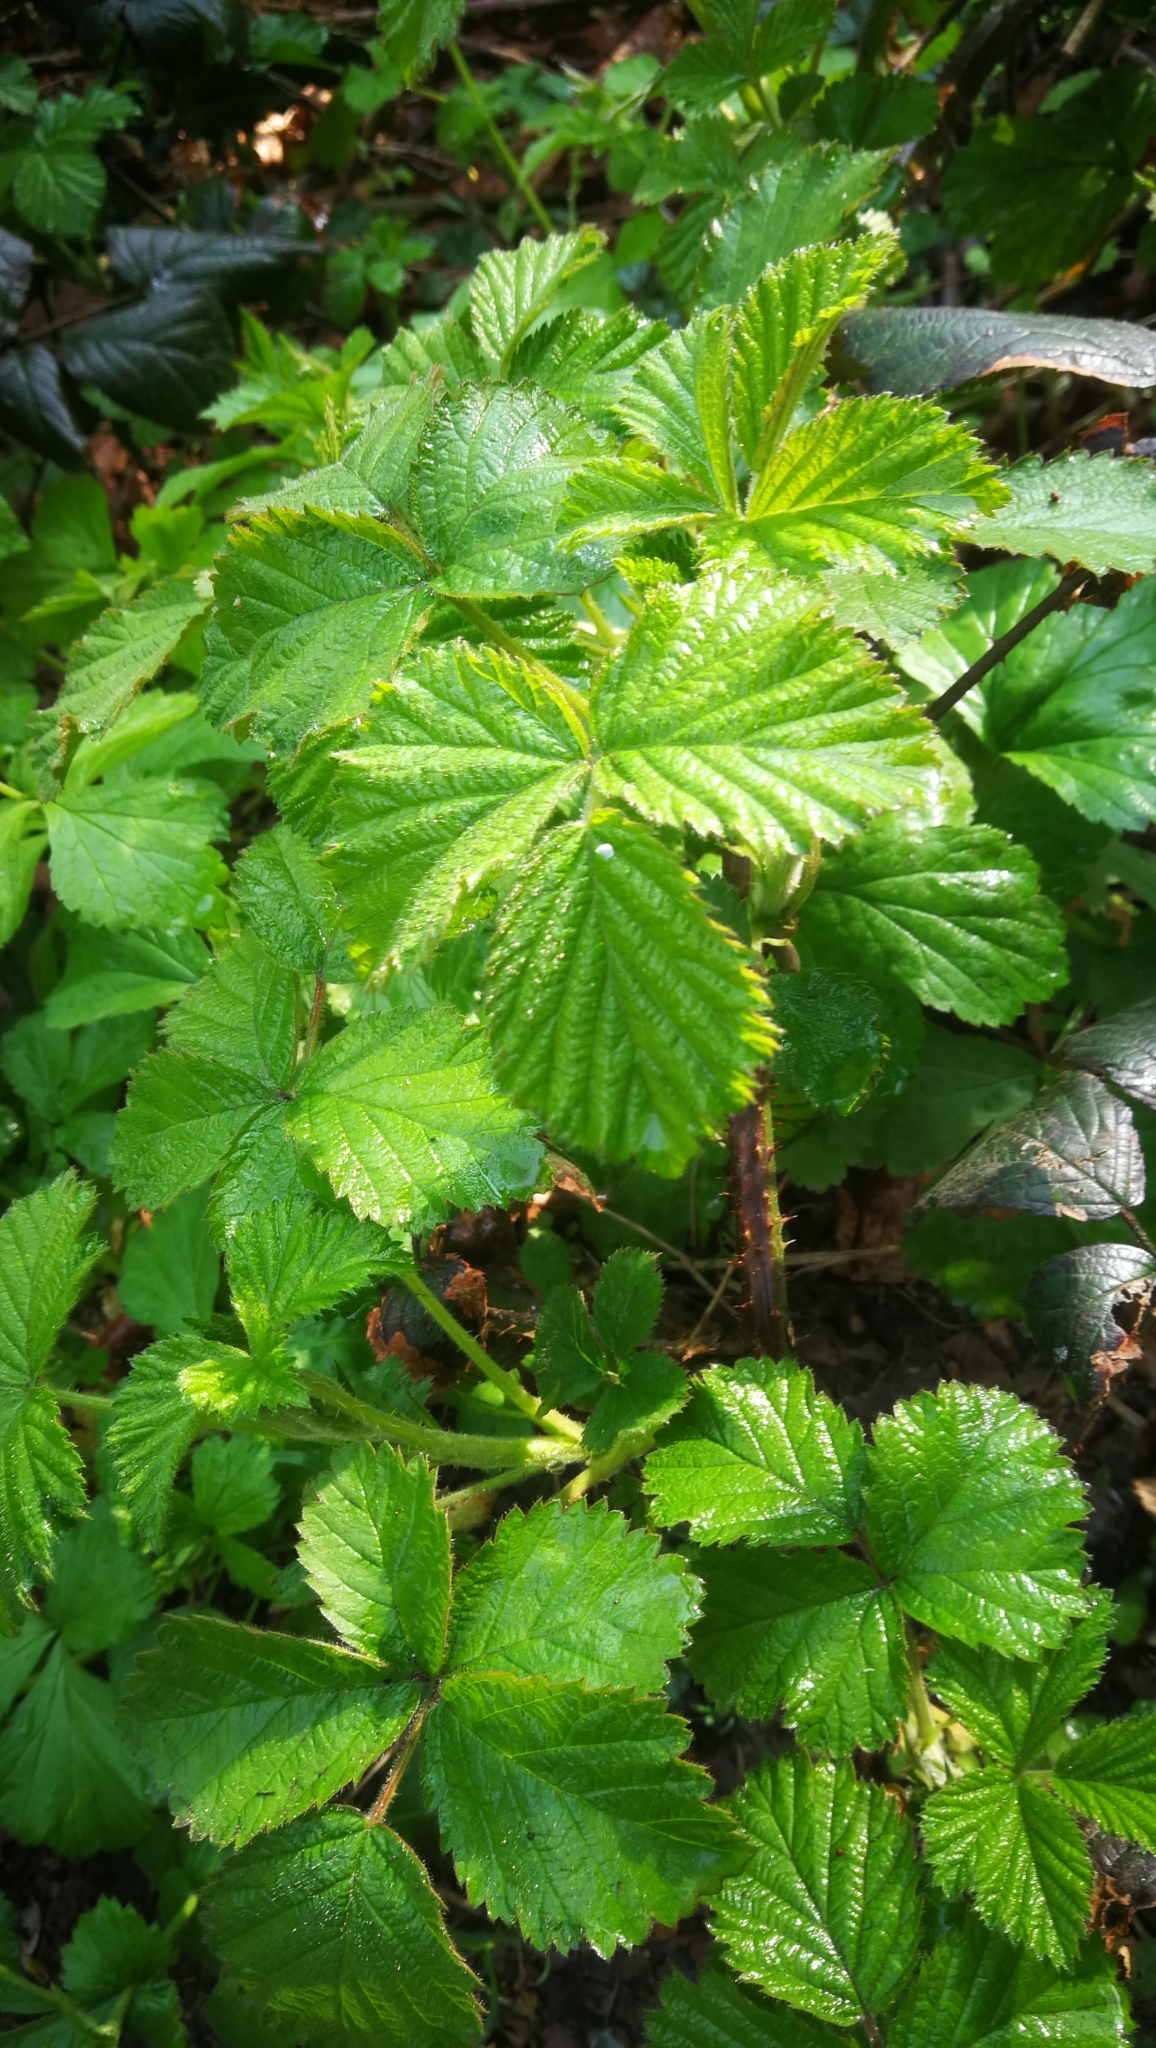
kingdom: Plantae
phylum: Tracheophyta
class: Magnoliopsida
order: Rosales
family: Rosaceae
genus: Rubus
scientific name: Rubus
